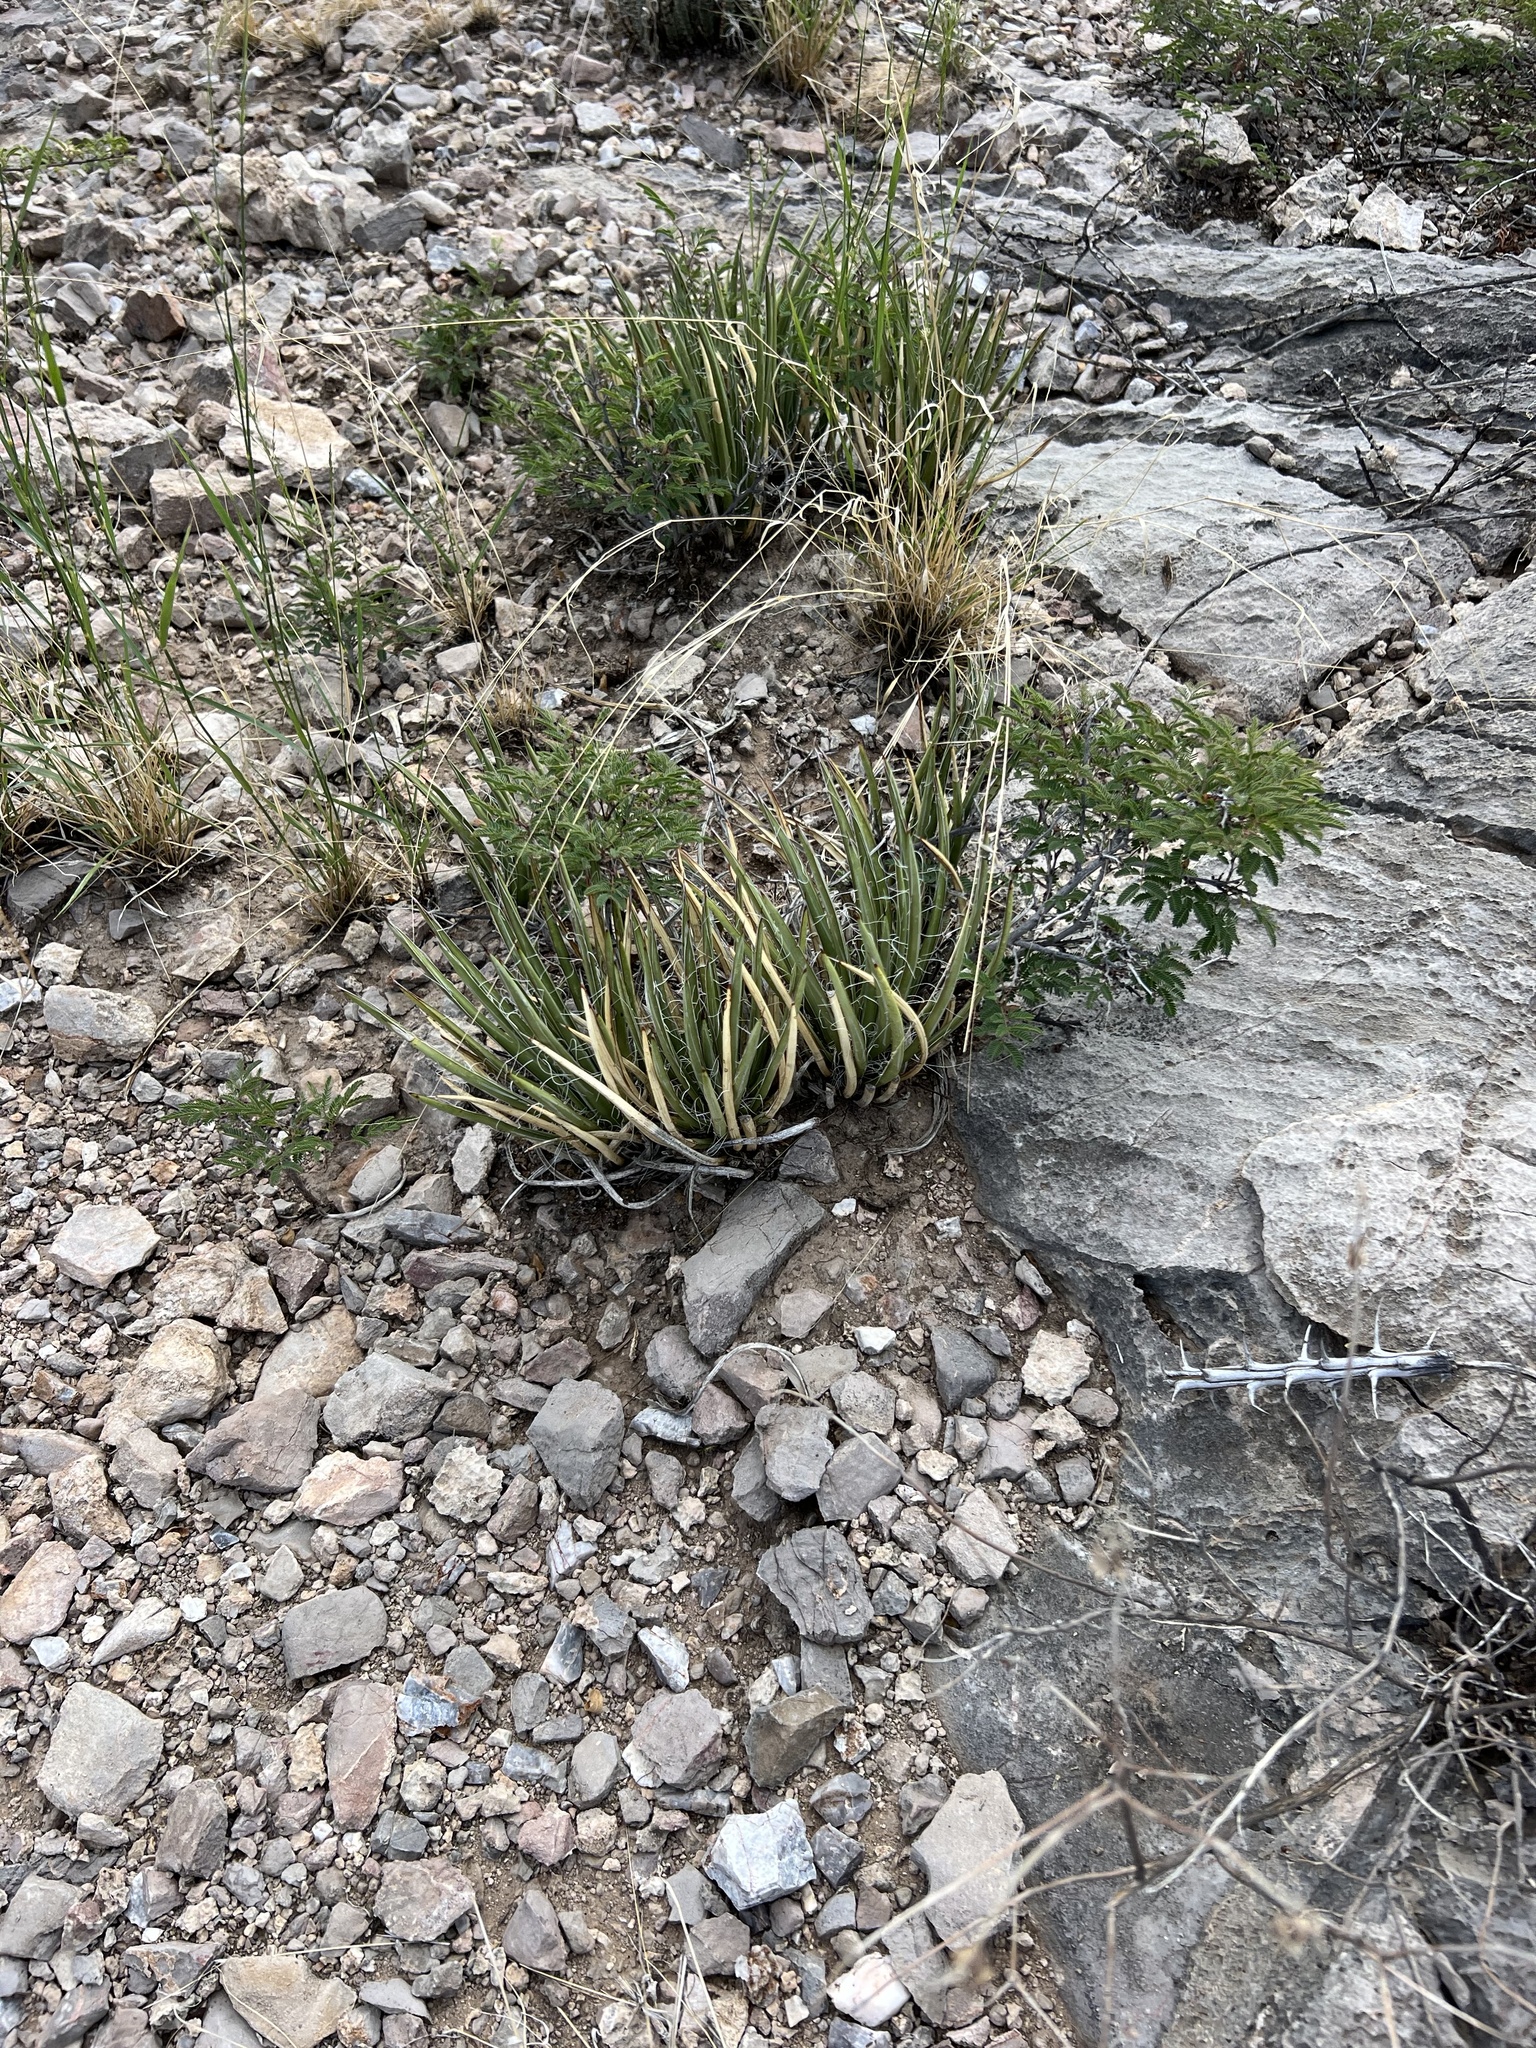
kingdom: Plantae
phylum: Tracheophyta
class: Liliopsida
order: Asparagales
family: Asparagaceae
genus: Agave
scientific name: Agave schottii
